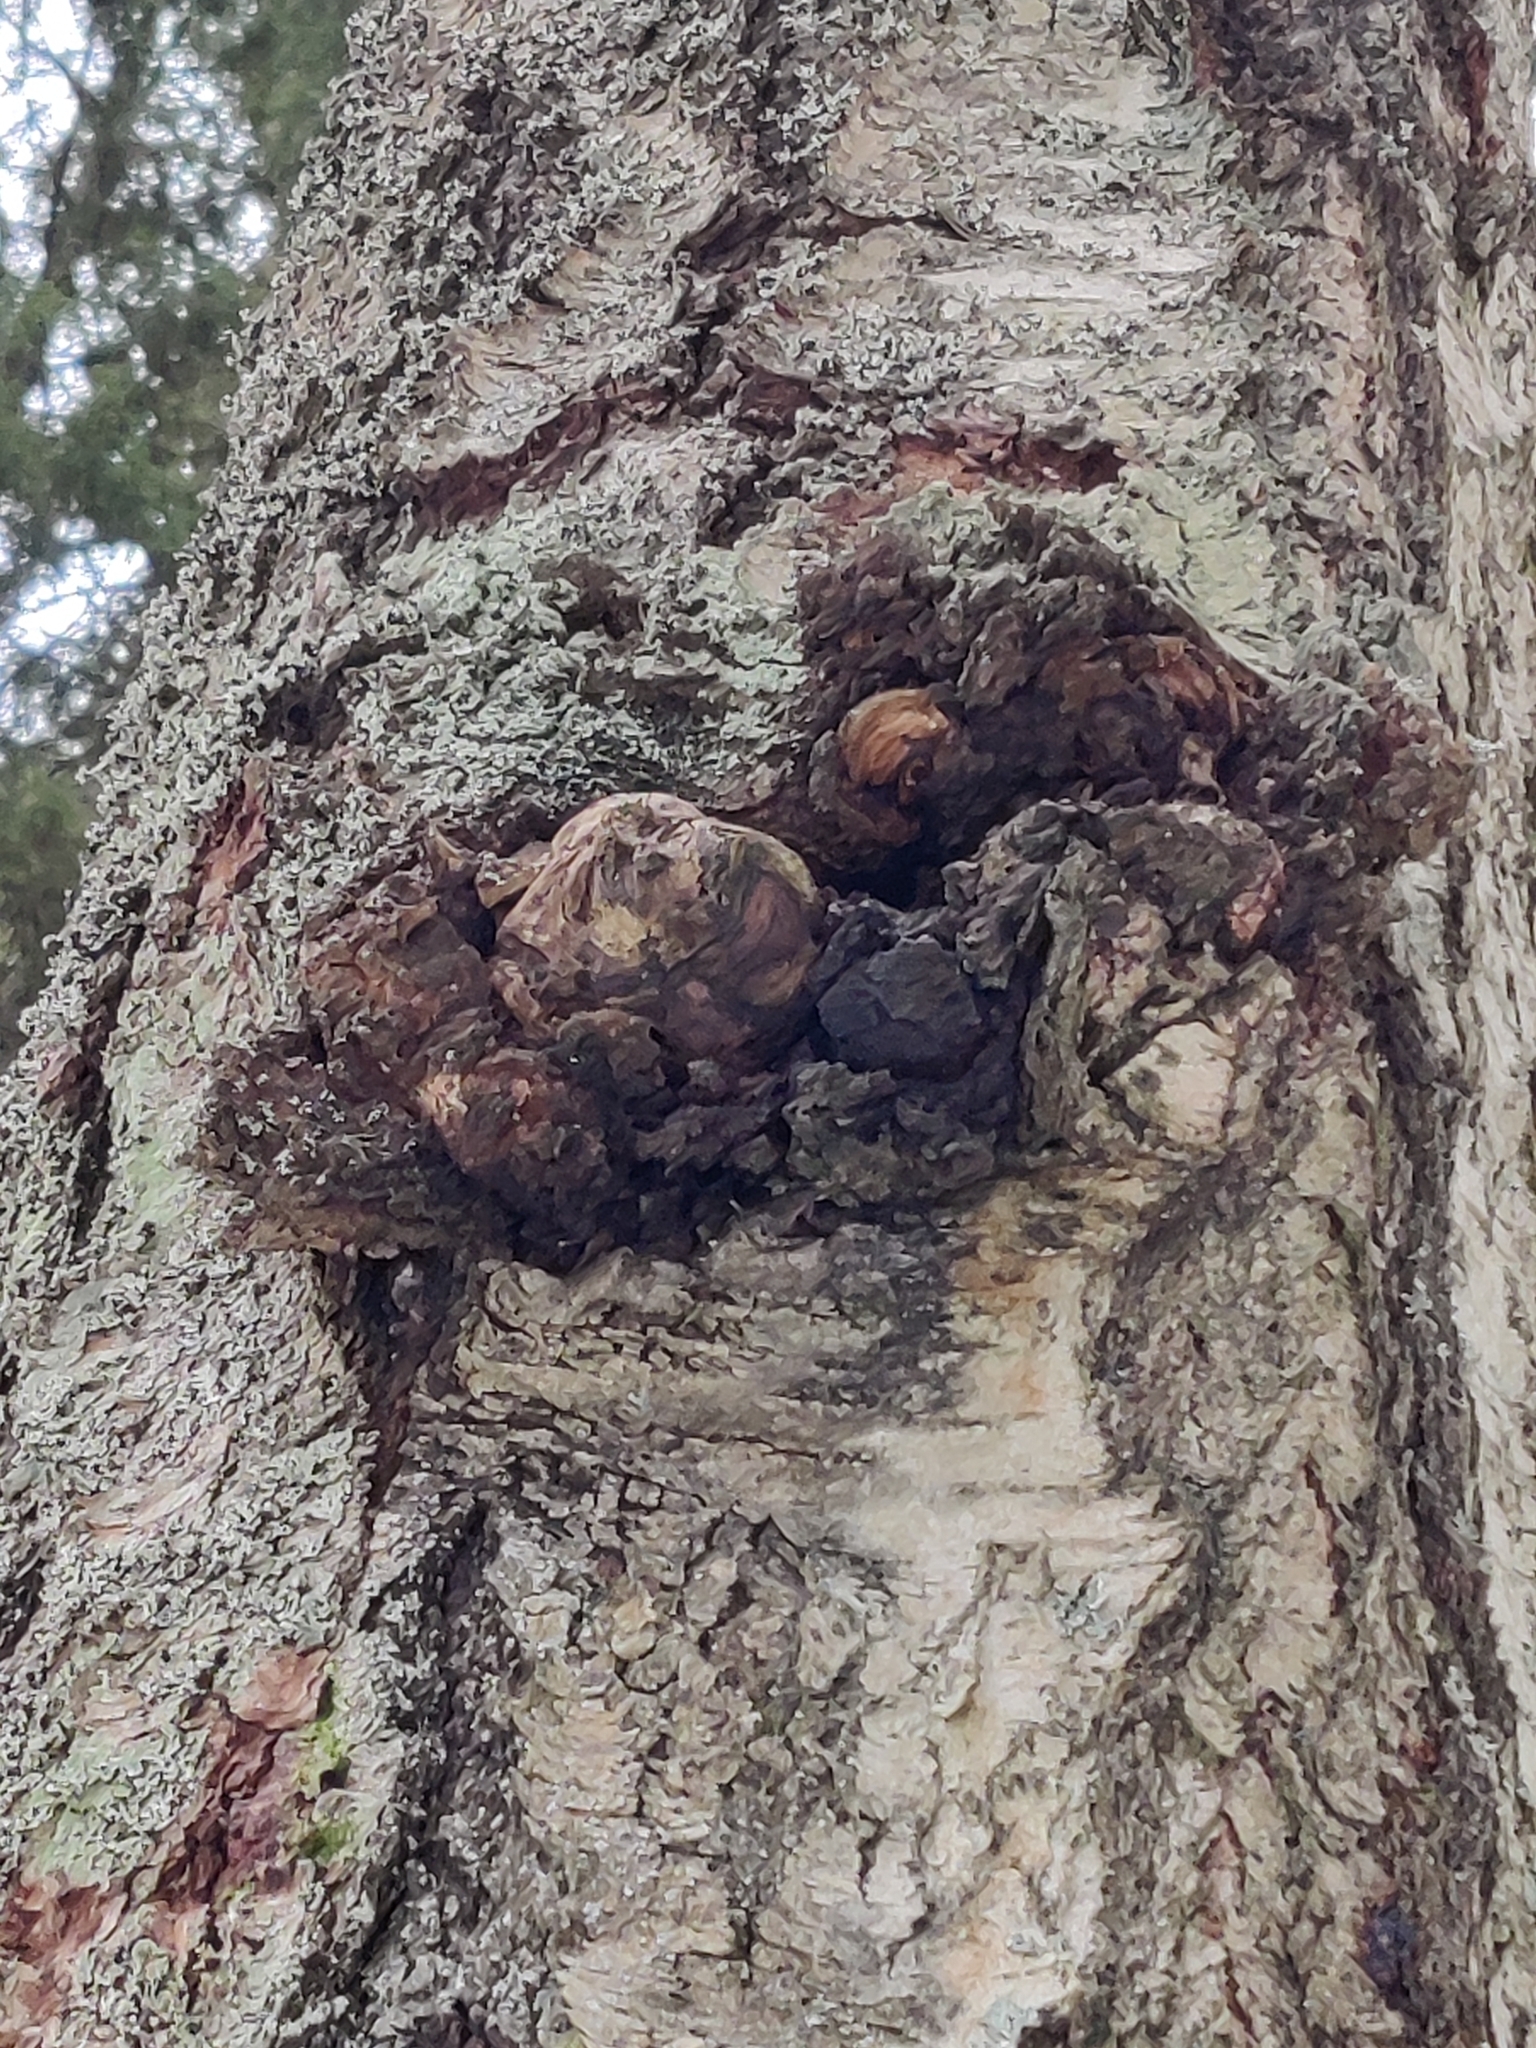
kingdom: Bacteria
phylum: Proteobacteria
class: Alphaproteobacteria
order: Rhizobiales
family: Rhizobiaceae
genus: Rhizobium
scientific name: Rhizobium Agrobacterium radiobacter
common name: Bacterial crown gall
